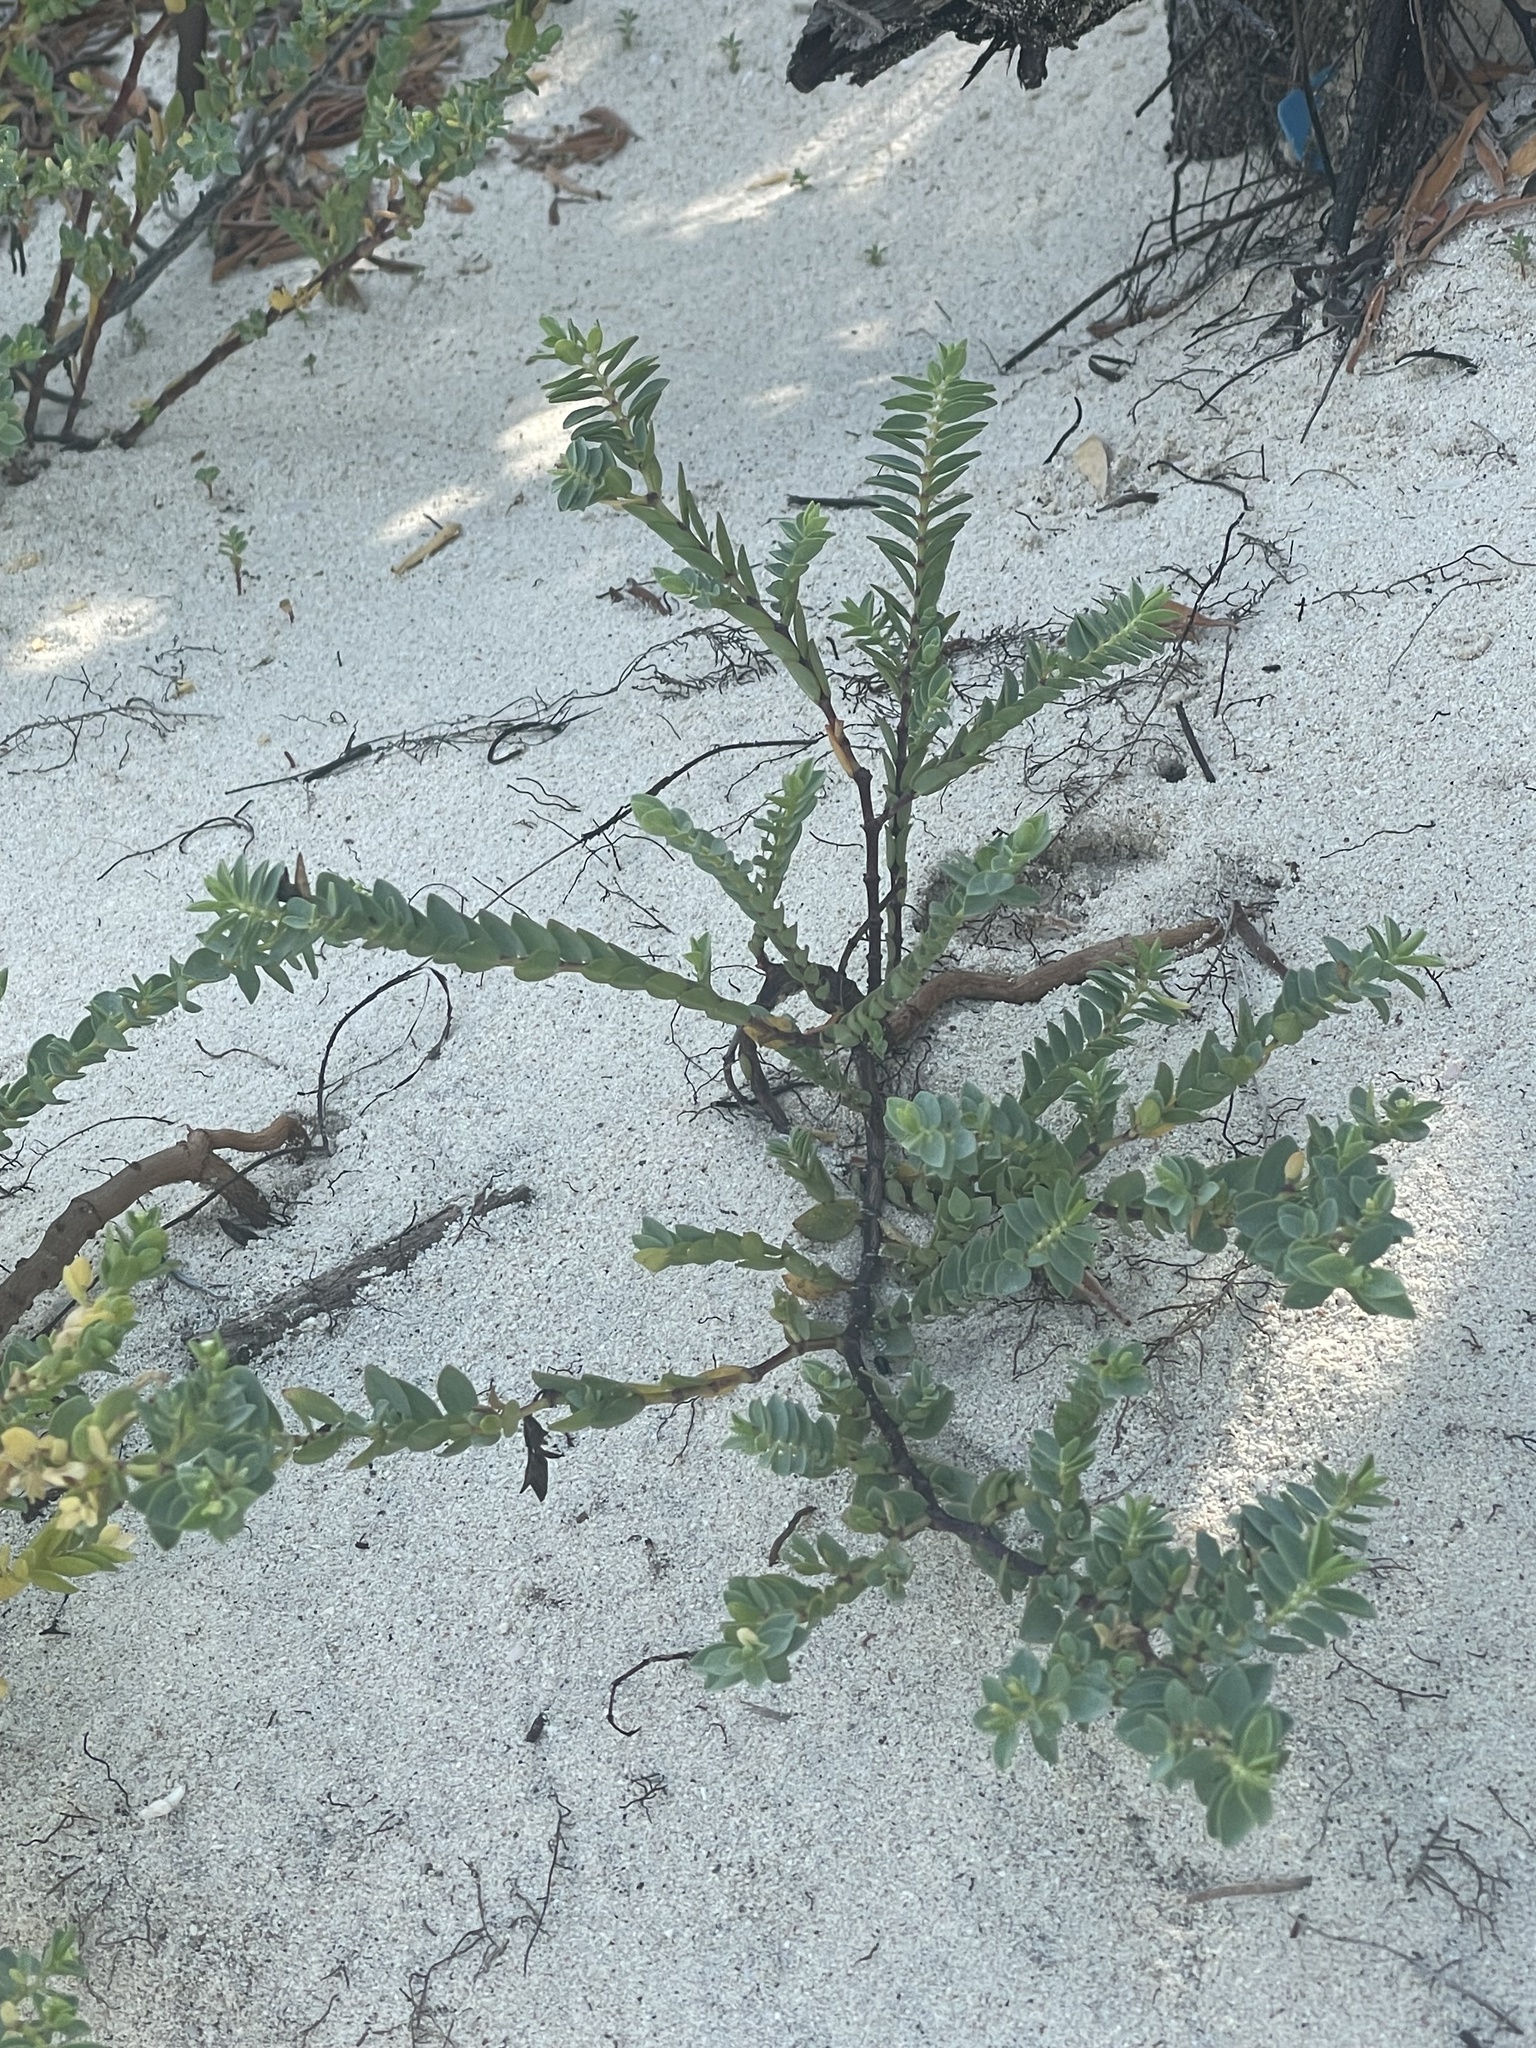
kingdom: Plantae
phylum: Tracheophyta
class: Magnoliopsida
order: Malpighiales
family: Euphorbiaceae
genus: Euphorbia
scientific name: Euphorbia mesembryanthemifolia
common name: Coastal beach sandmat
